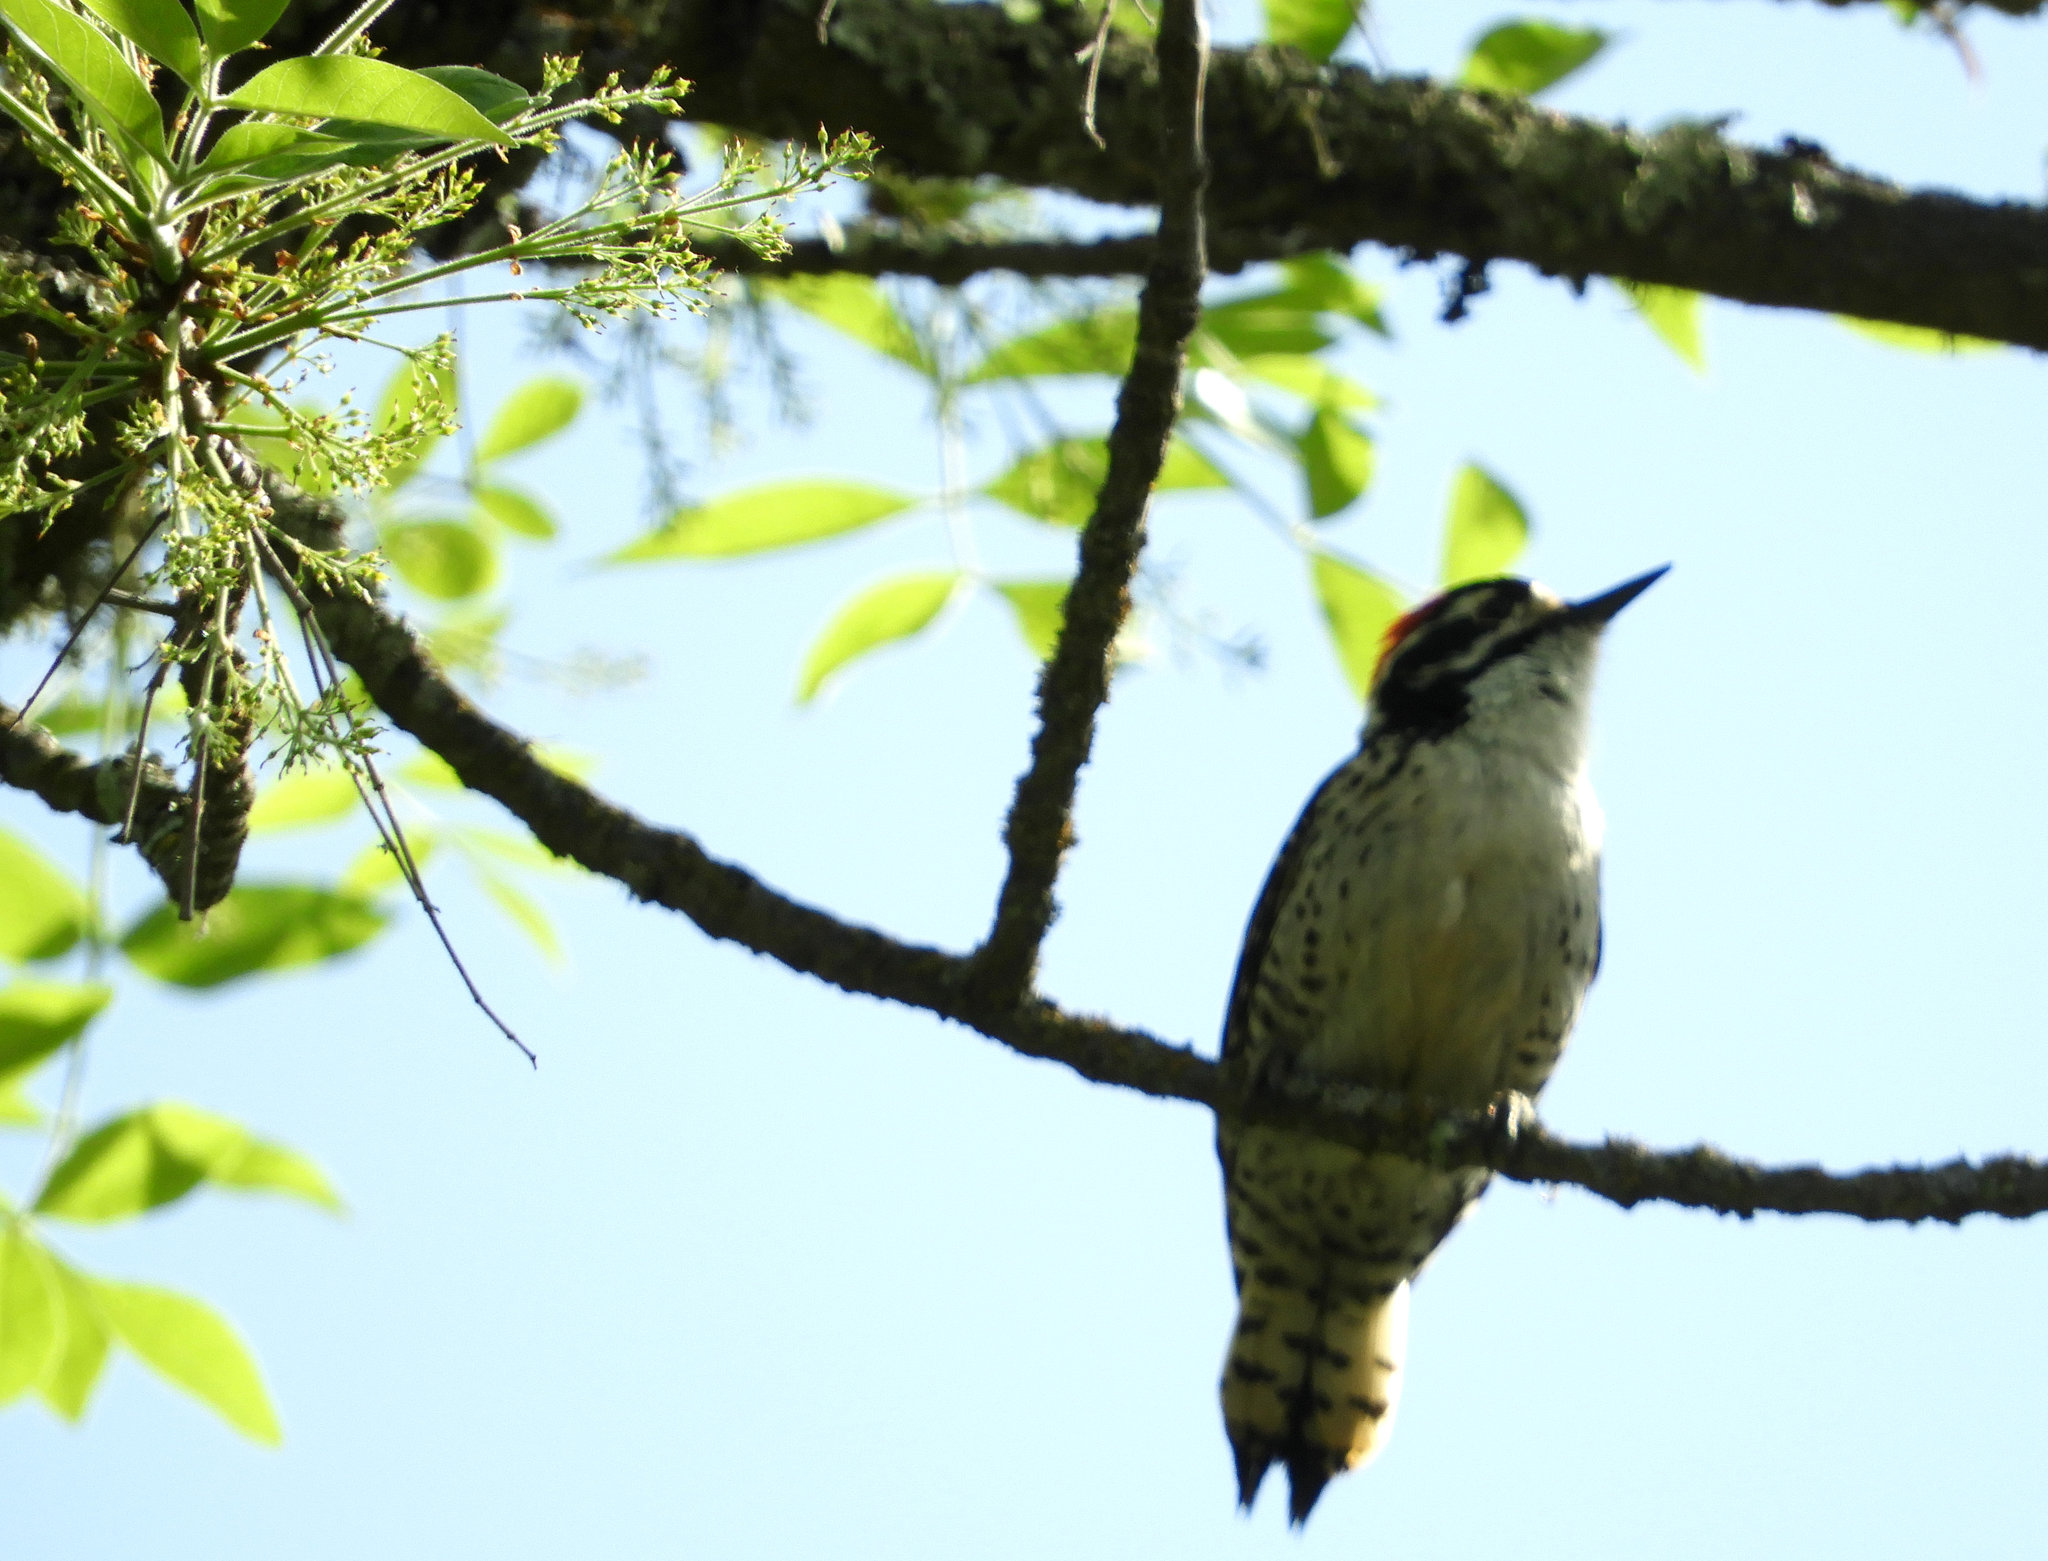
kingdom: Animalia
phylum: Chordata
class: Aves
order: Piciformes
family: Picidae
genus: Dryobates
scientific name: Dryobates nuttallii
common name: Nuttall's woodpecker
